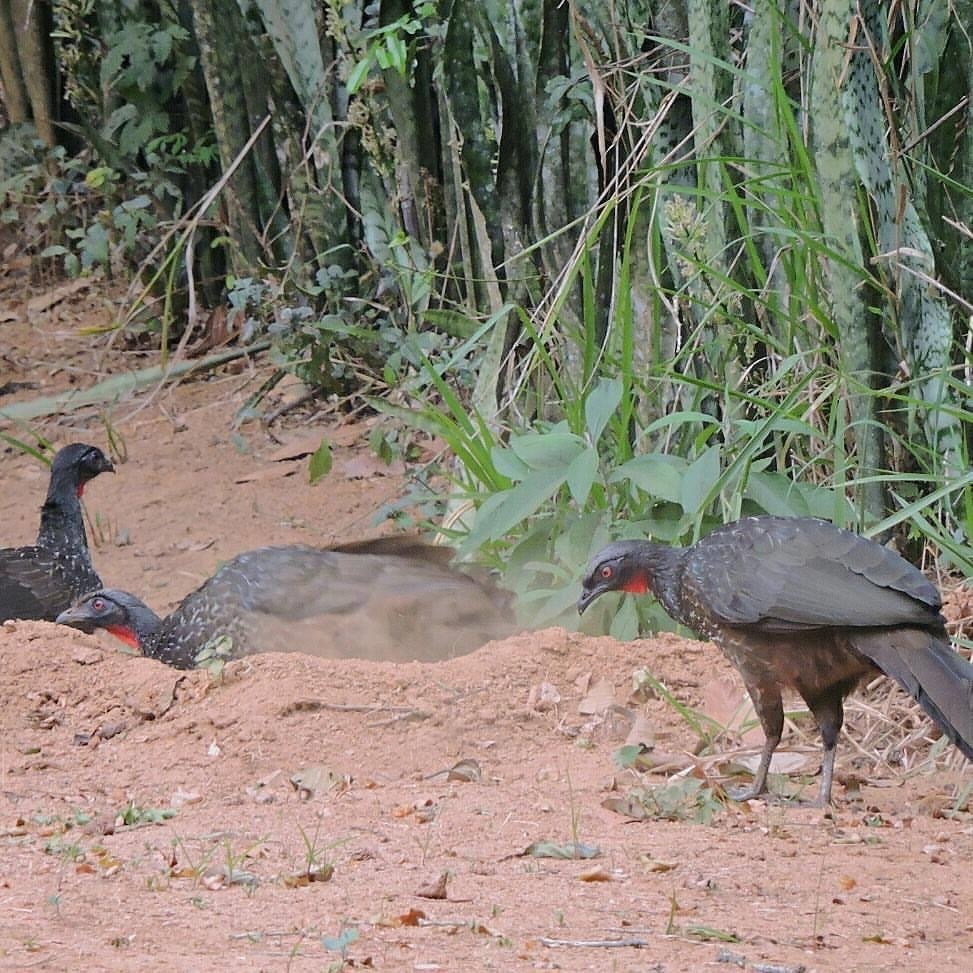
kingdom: Animalia
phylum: Chordata
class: Aves
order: Galliformes
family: Cracidae
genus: Penelope
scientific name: Penelope obscura
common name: Dusky-legged guan
